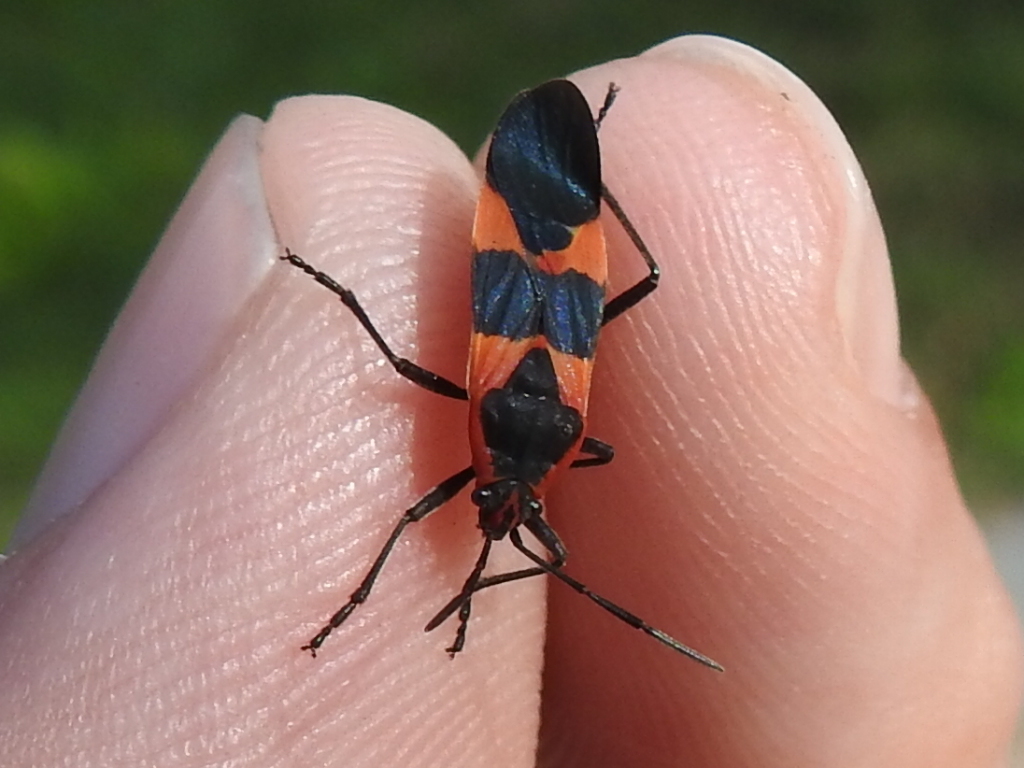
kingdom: Animalia
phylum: Arthropoda
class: Insecta
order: Hemiptera
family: Lygaeidae
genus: Oncopeltus
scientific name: Oncopeltus fasciatus
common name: Large milkweed bug
